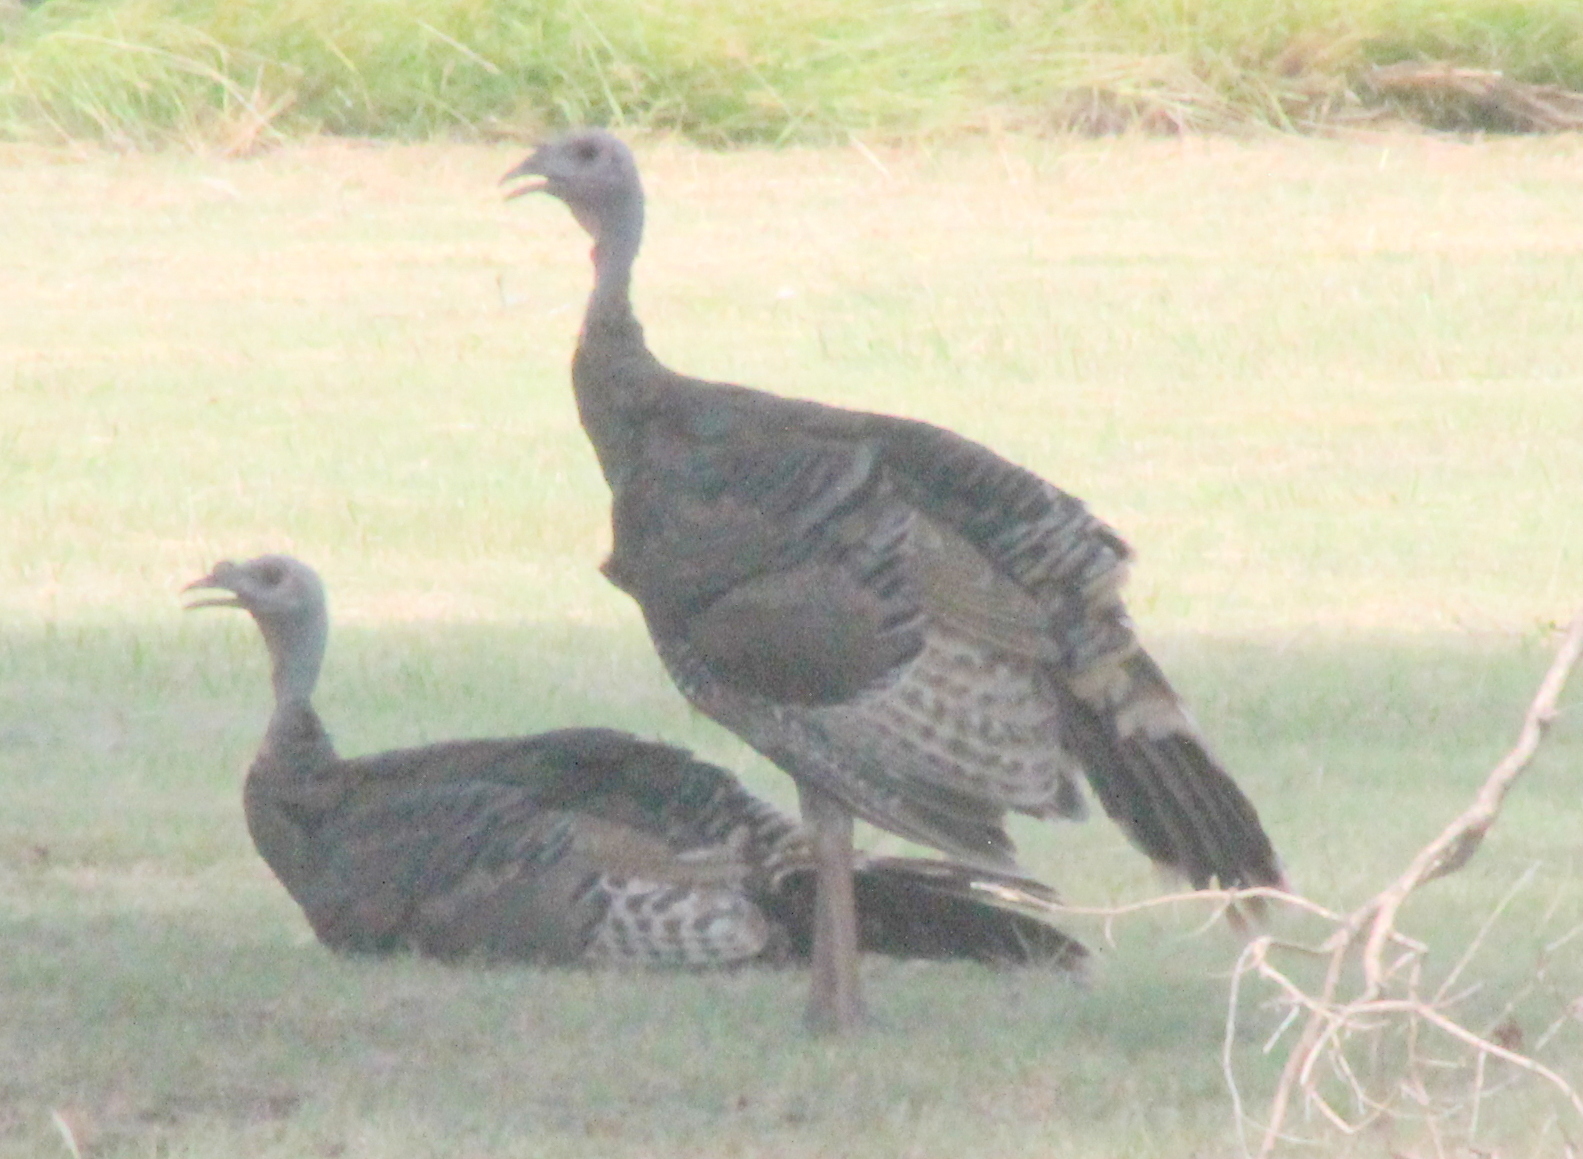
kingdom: Animalia
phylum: Chordata
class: Aves
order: Galliformes
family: Phasianidae
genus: Meleagris
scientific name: Meleagris gallopavo
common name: Wild turkey
